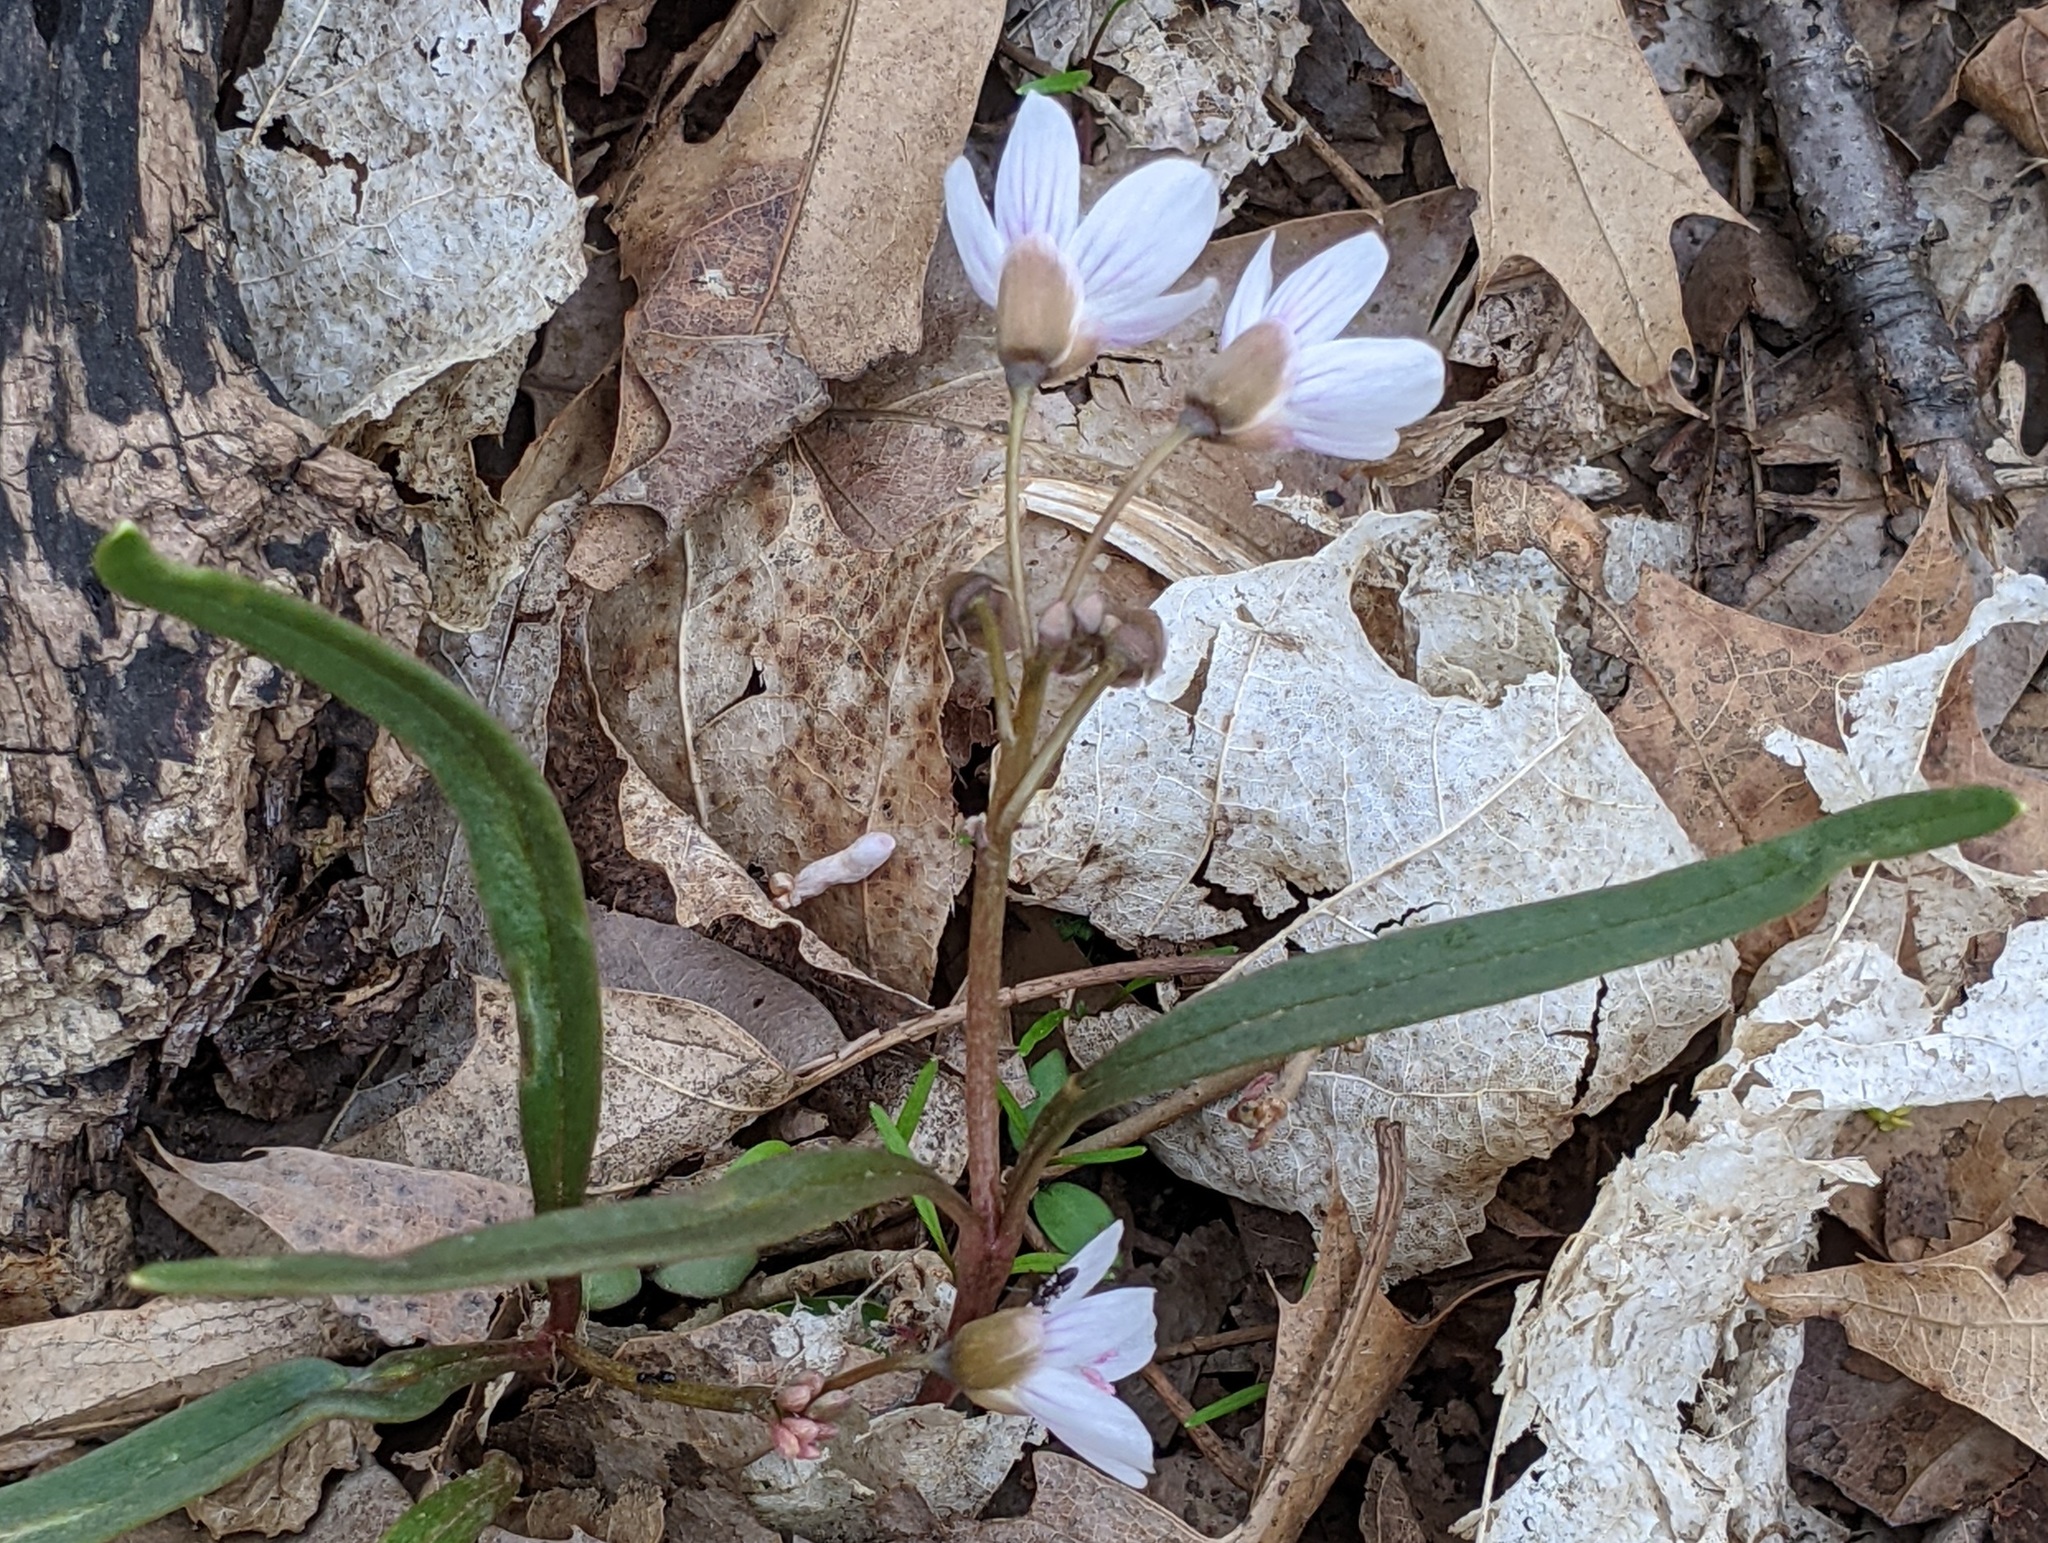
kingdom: Plantae
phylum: Tracheophyta
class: Magnoliopsida
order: Caryophyllales
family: Montiaceae
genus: Claytonia
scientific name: Claytonia virginica
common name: Virginia springbeauty
